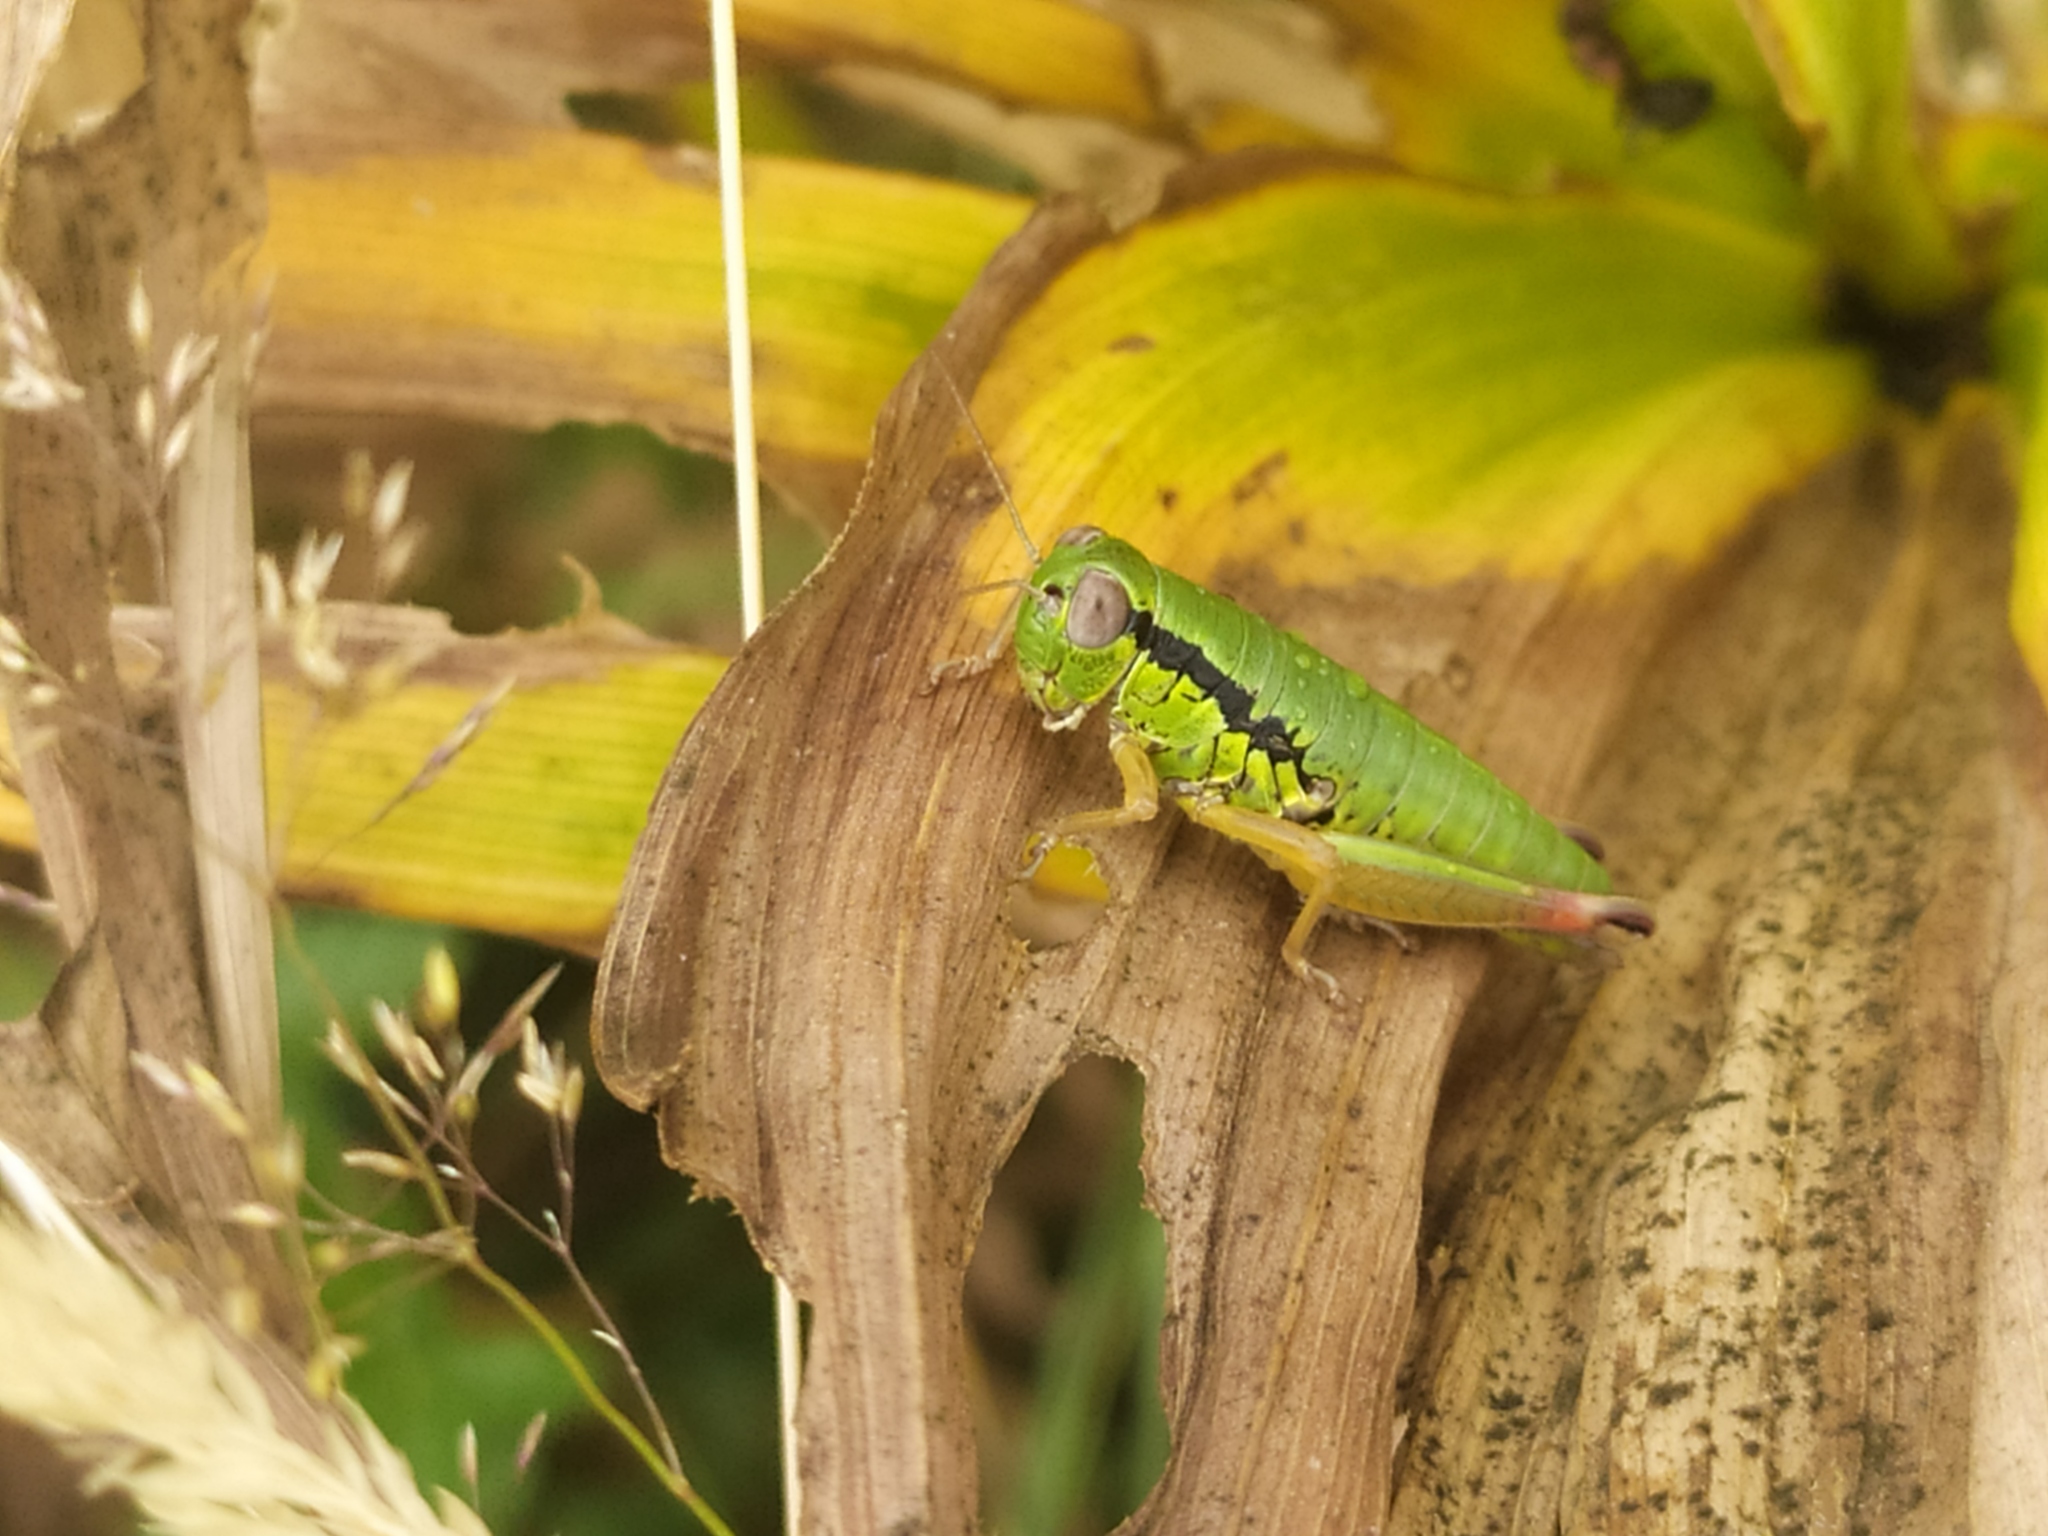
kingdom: Animalia
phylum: Arthropoda
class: Insecta
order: Orthoptera
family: Acrididae
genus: Micropodisma
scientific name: Micropodisma salamandra
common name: Foothill mountain grasshopper
